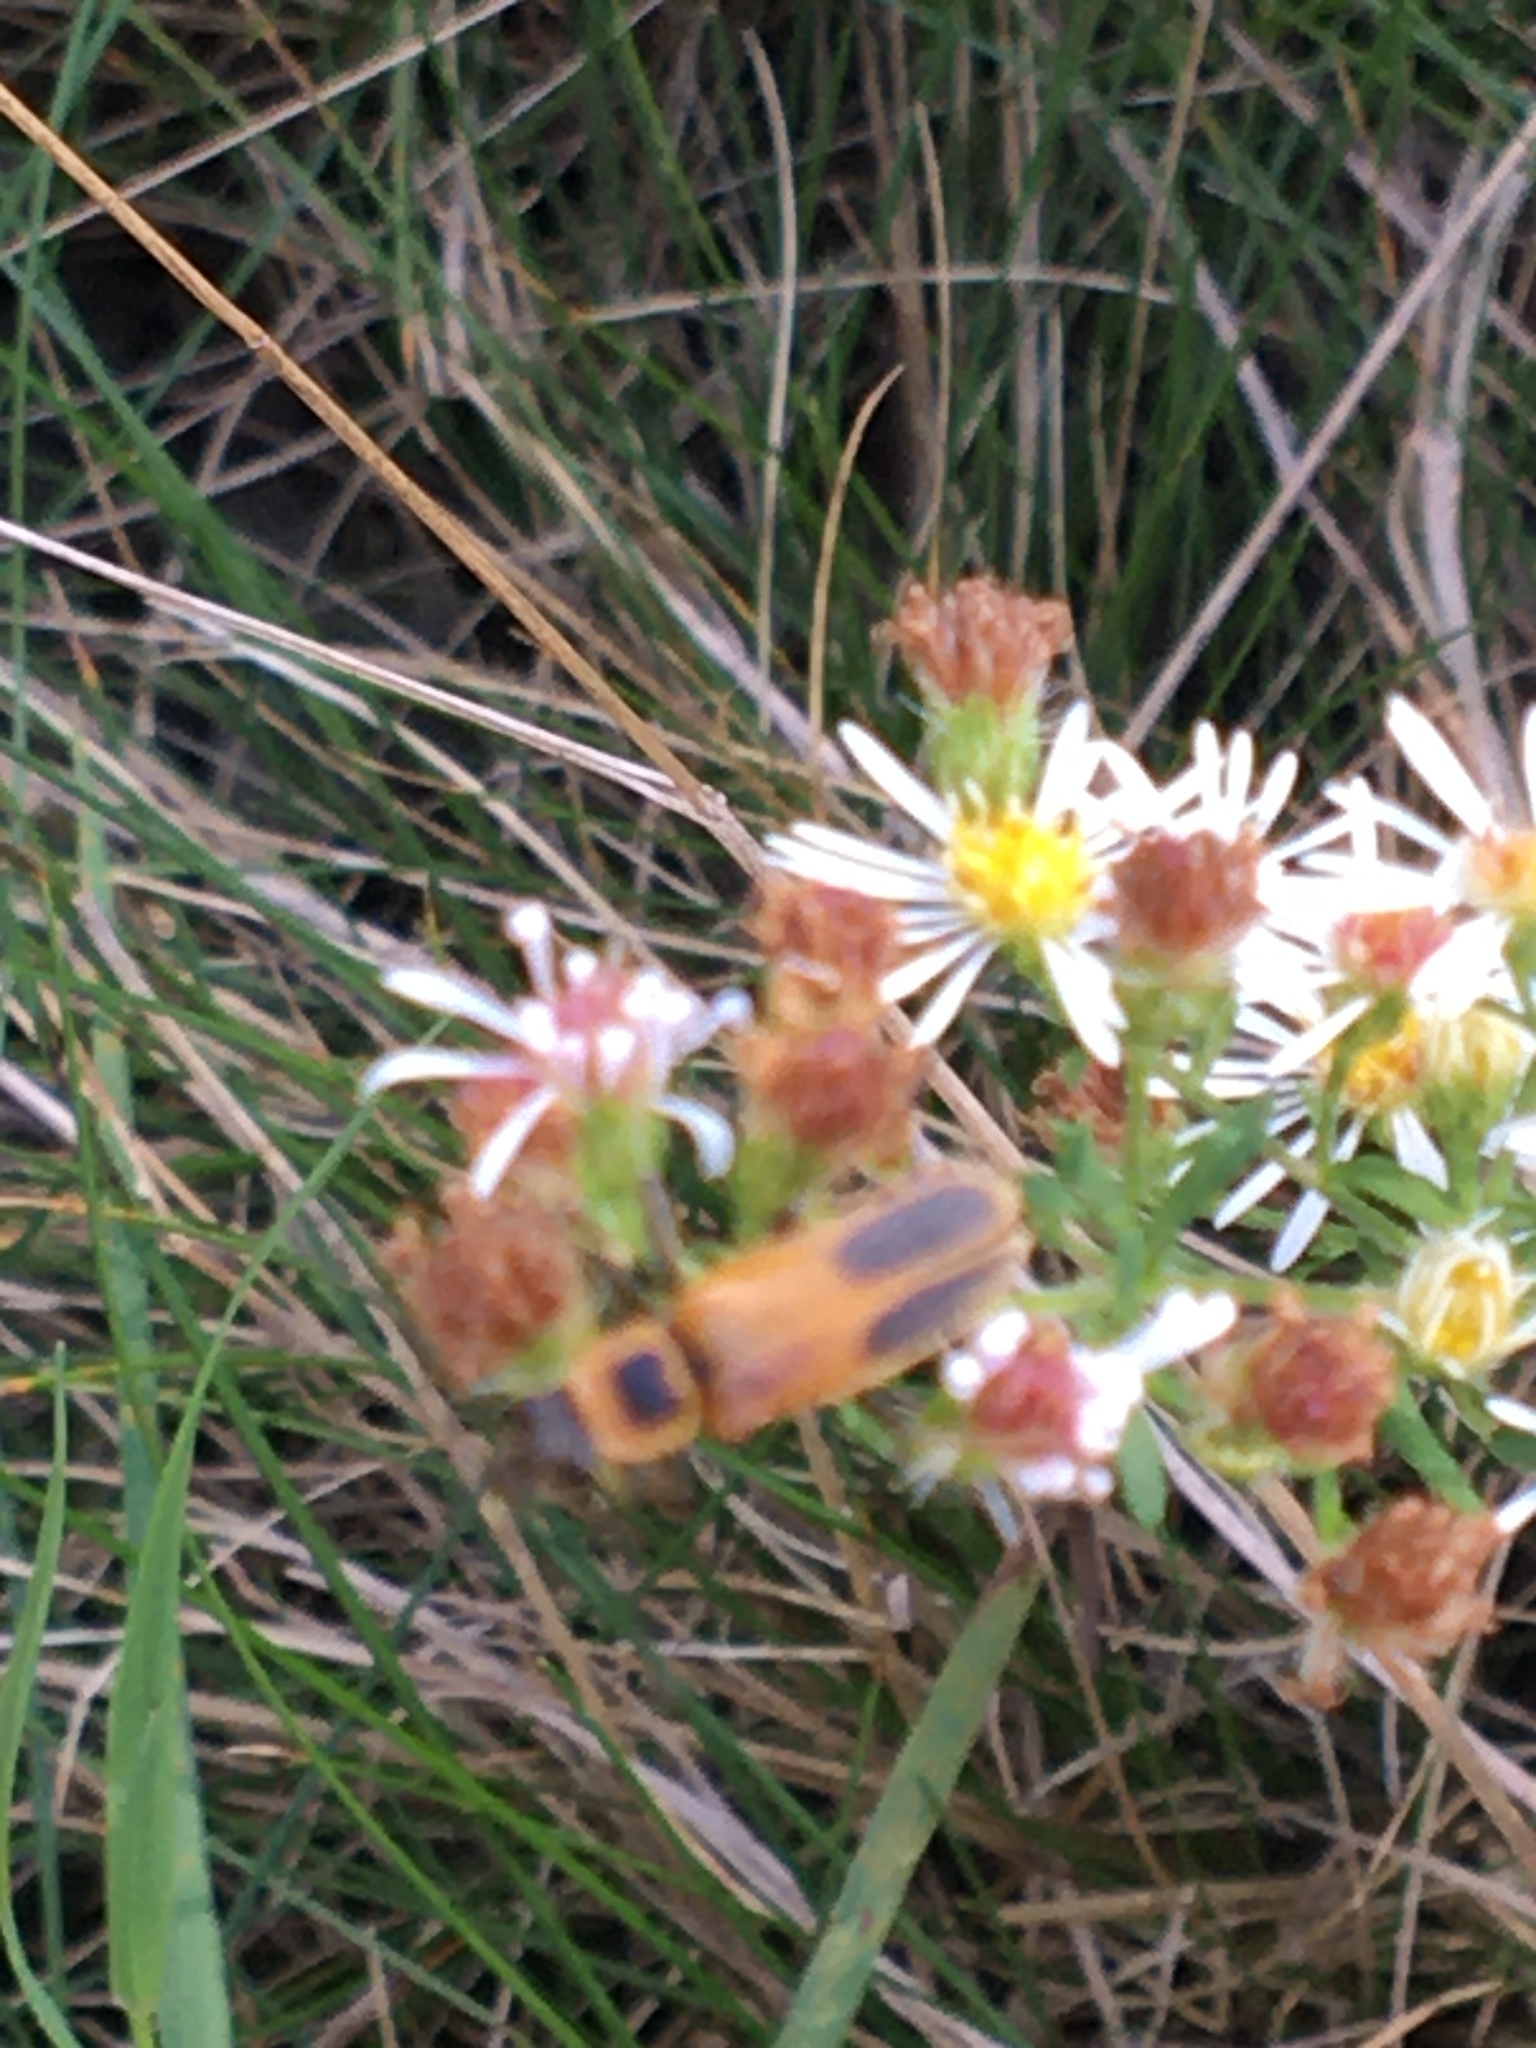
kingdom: Animalia
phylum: Arthropoda
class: Insecta
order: Coleoptera
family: Cantharidae
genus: Chauliognathus
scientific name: Chauliognathus pensylvanicus
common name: Goldenrod soldier beetle
